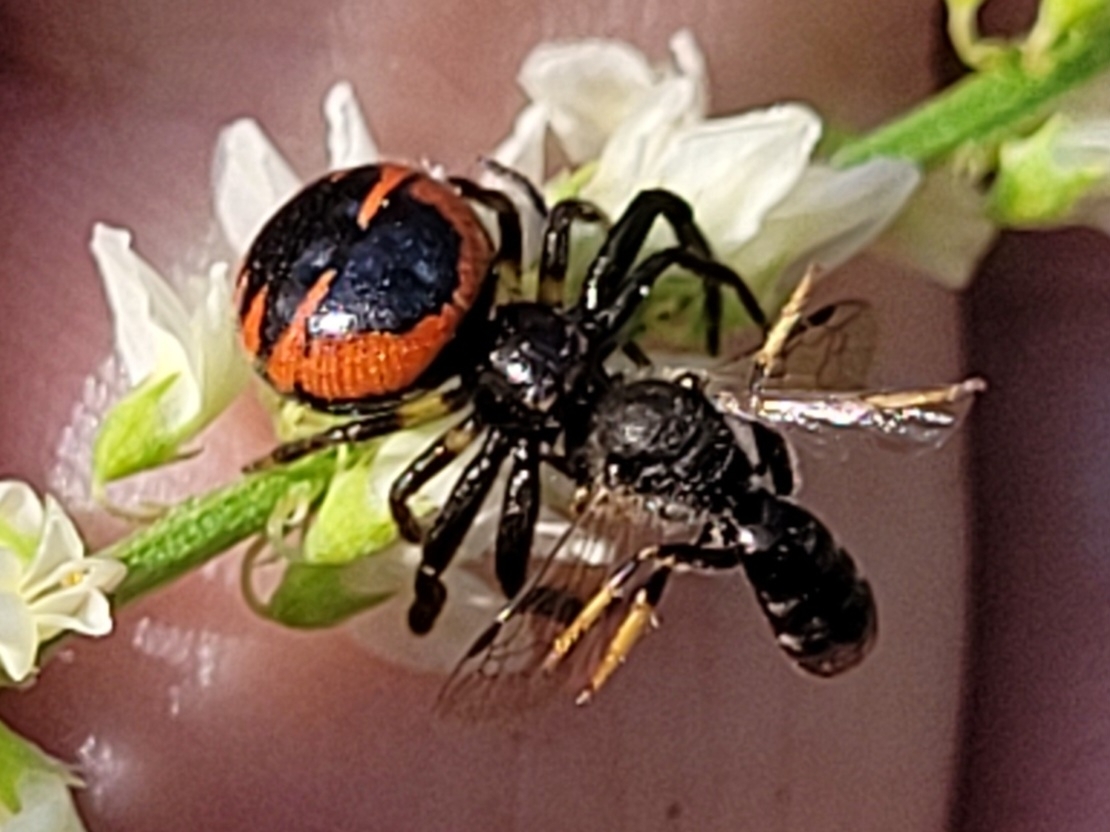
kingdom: Animalia
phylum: Arthropoda
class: Arachnida
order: Araneae
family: Thomisidae
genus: Synema
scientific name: Synema globosum
